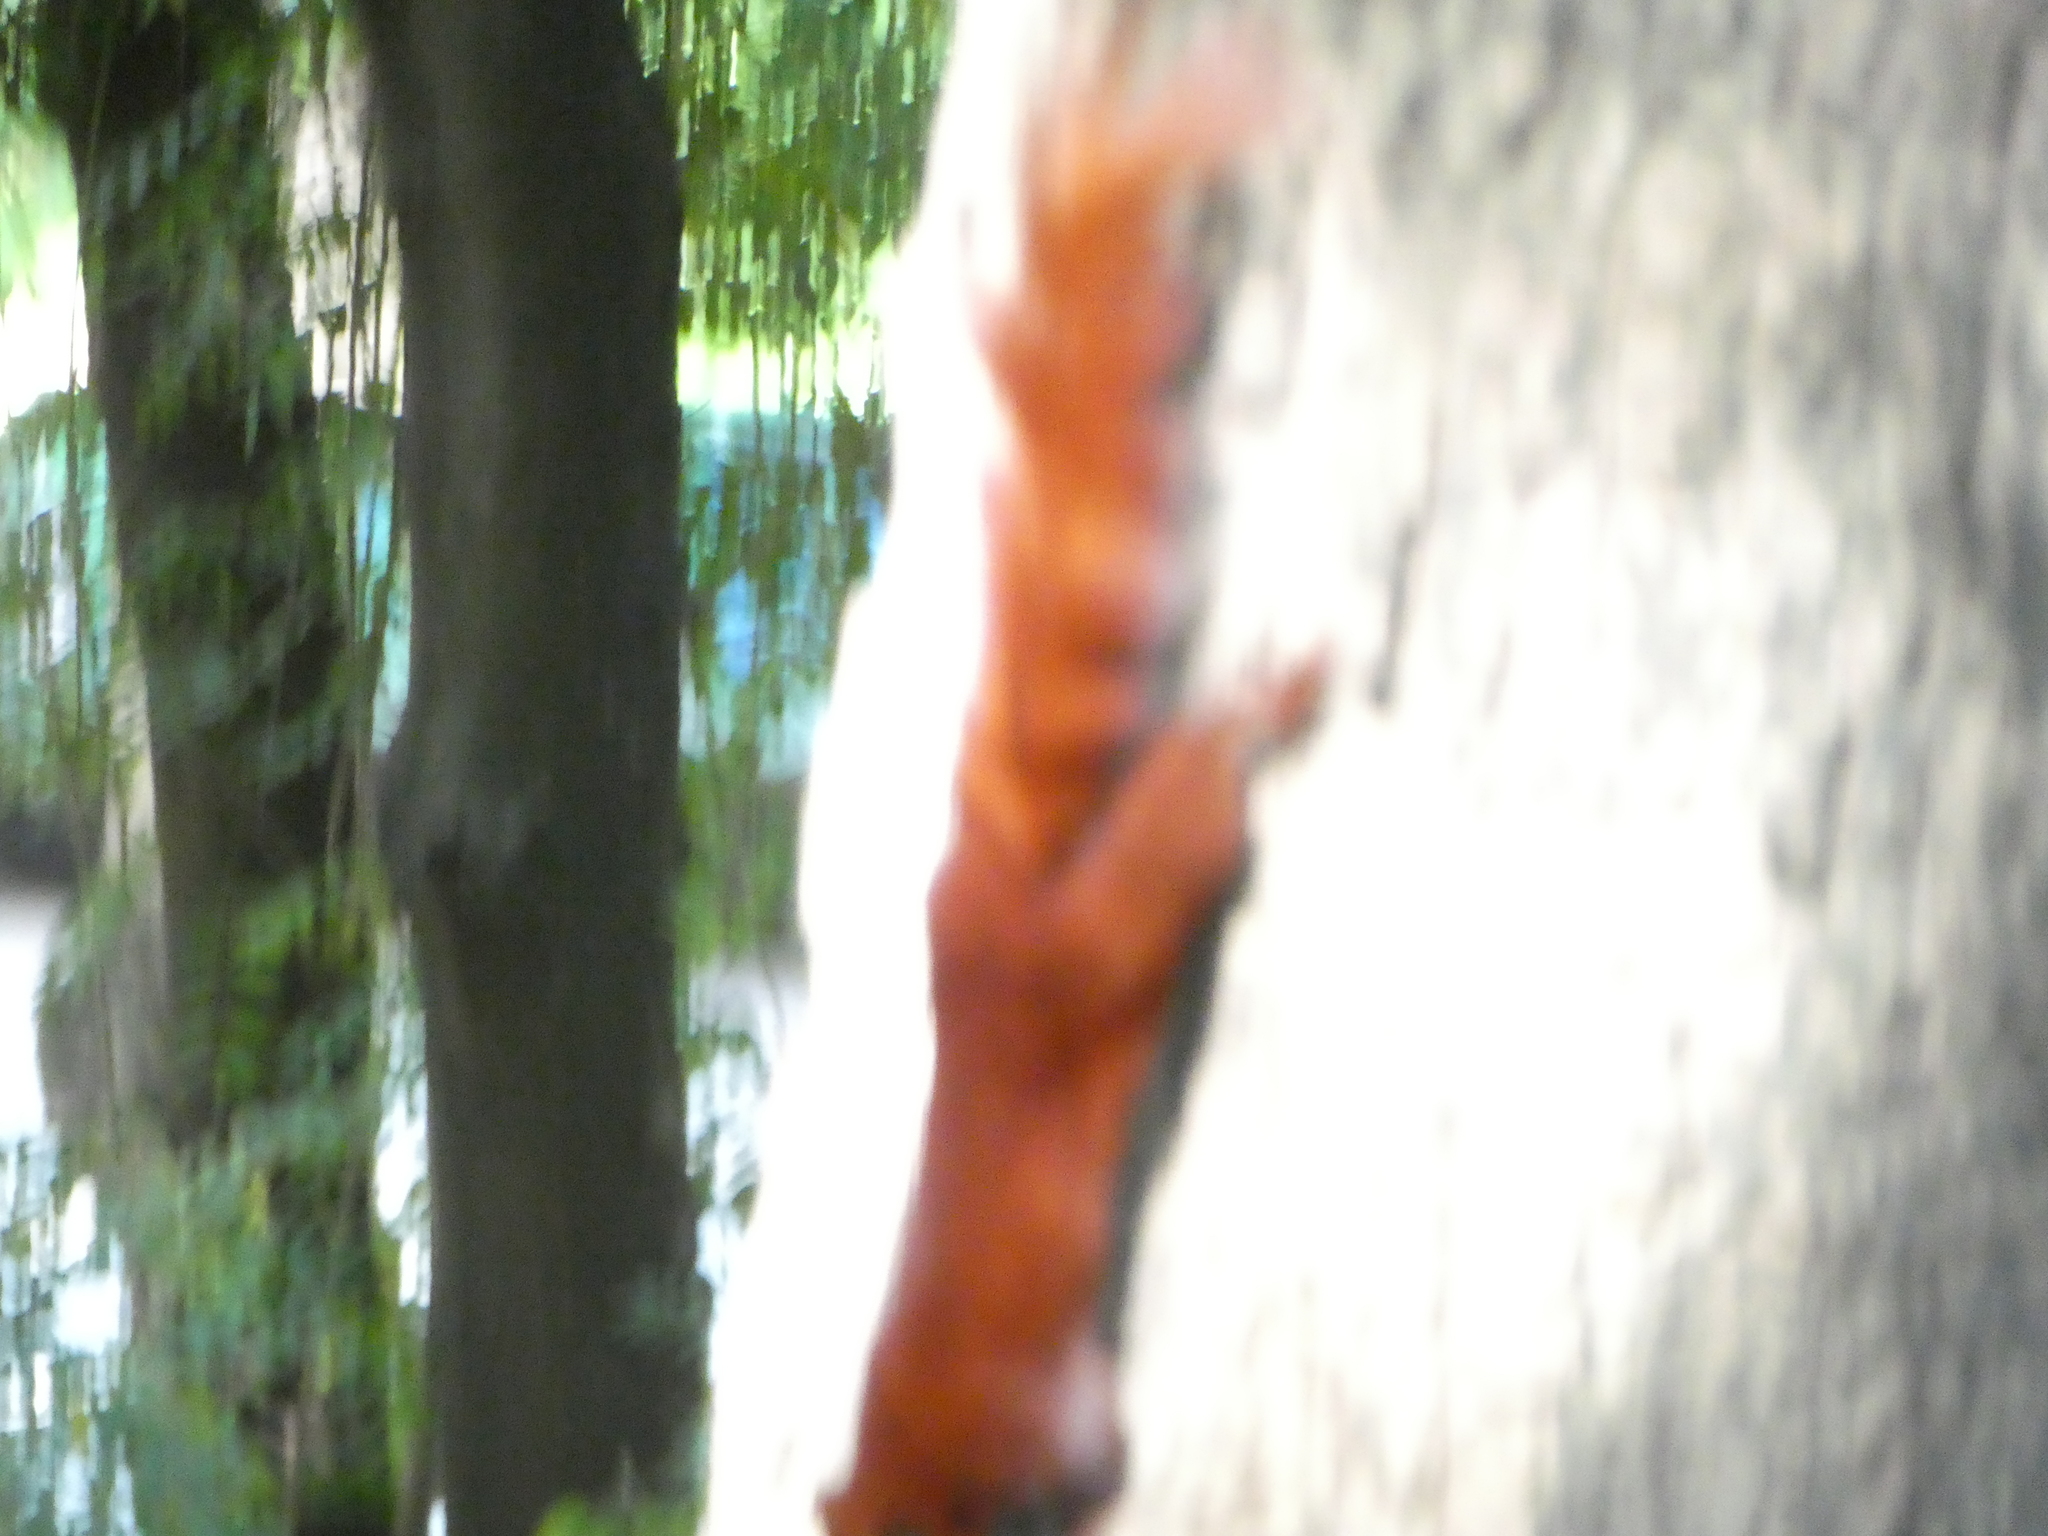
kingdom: Animalia
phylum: Chordata
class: Mammalia
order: Rodentia
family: Sciuridae
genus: Callosciurus
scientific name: Callosciurus finlaysonii
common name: Finlayson's squirrel
